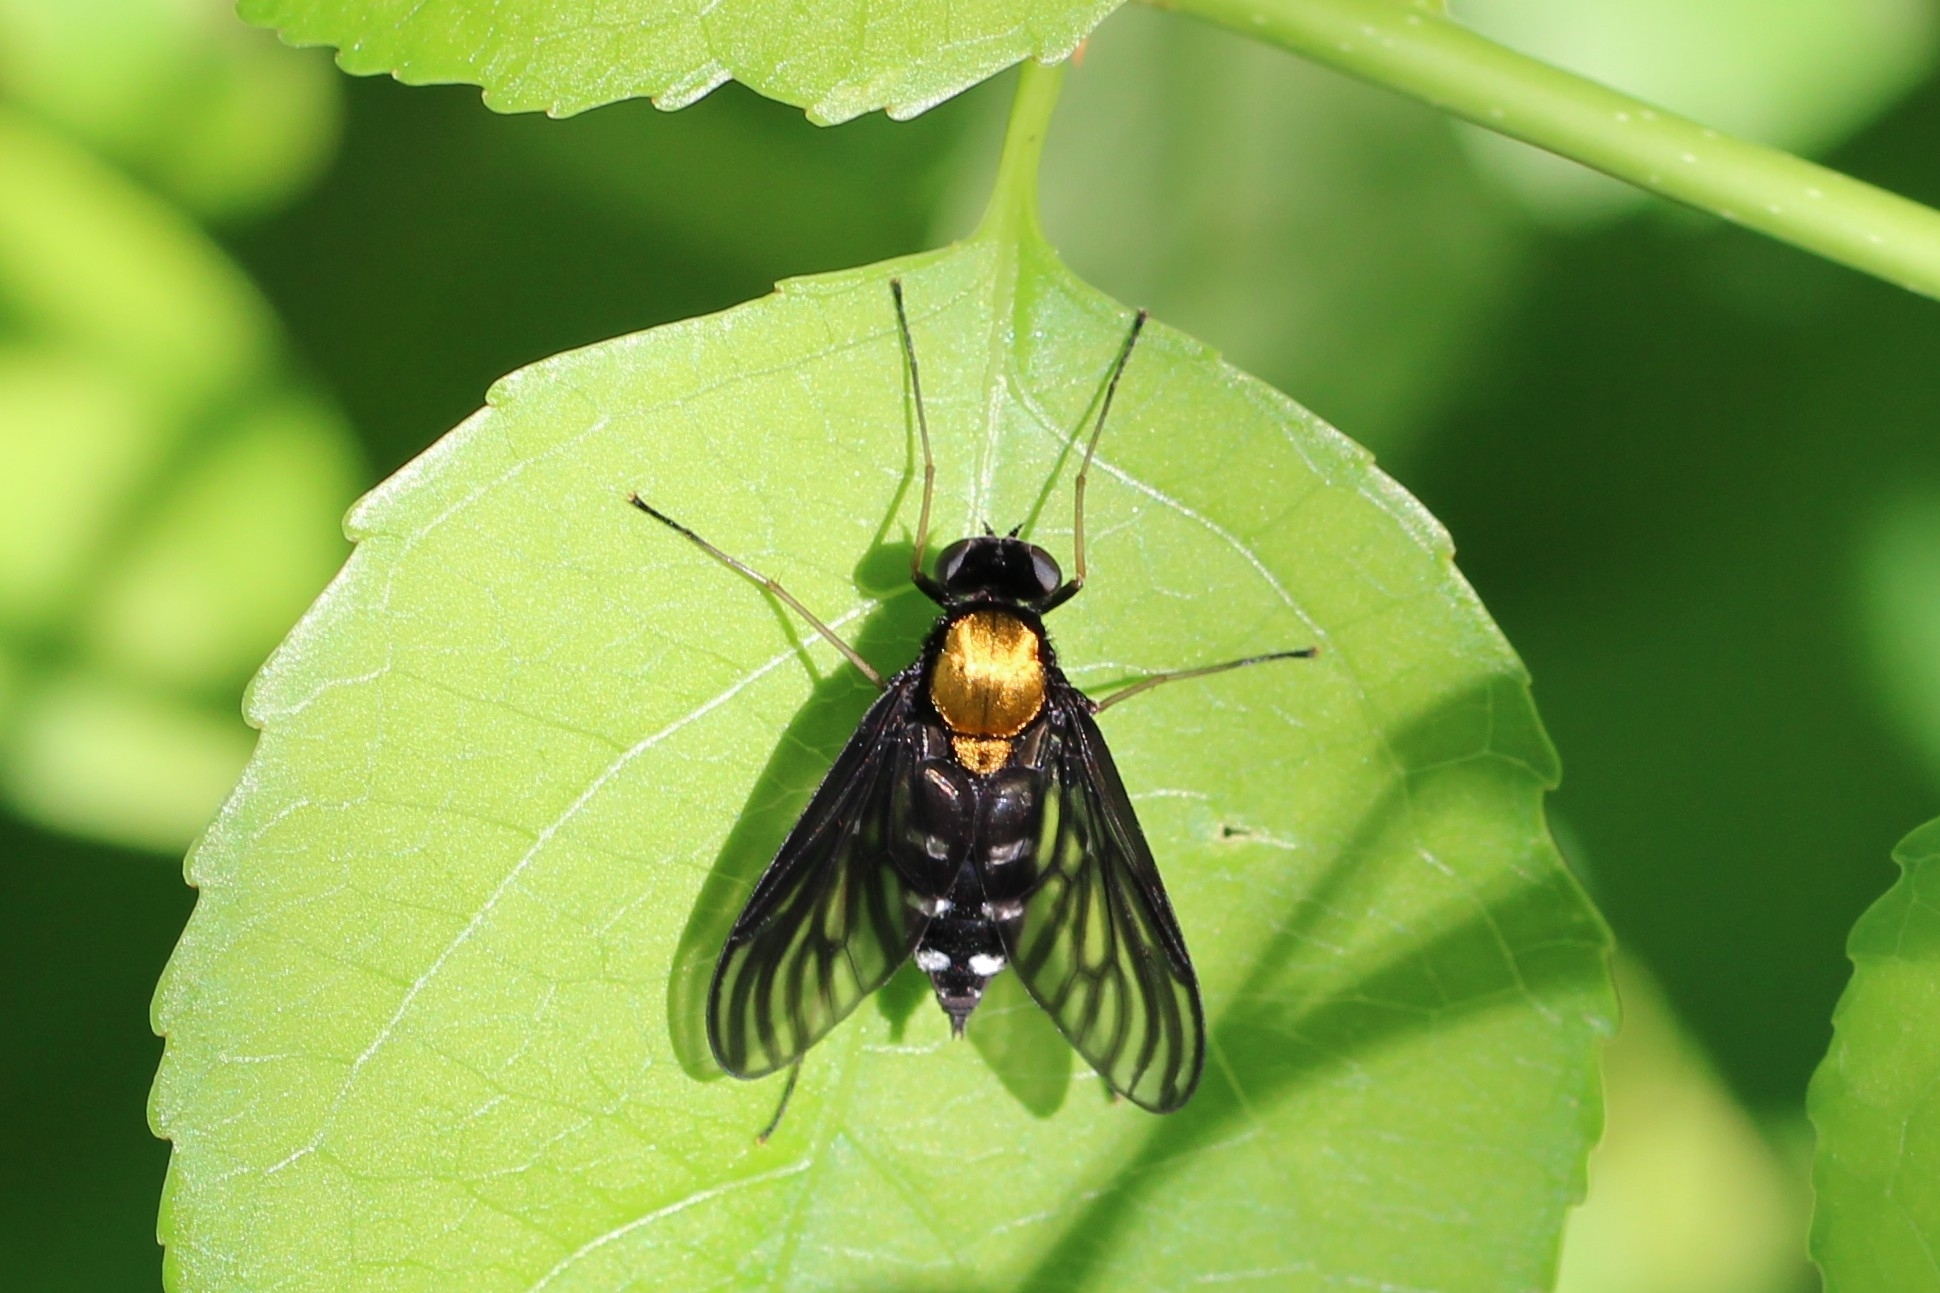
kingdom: Animalia
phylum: Arthropoda
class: Insecta
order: Diptera
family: Rhagionidae
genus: Chrysopilus
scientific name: Chrysopilus thoracicus
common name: Golden-backed snipe fly
